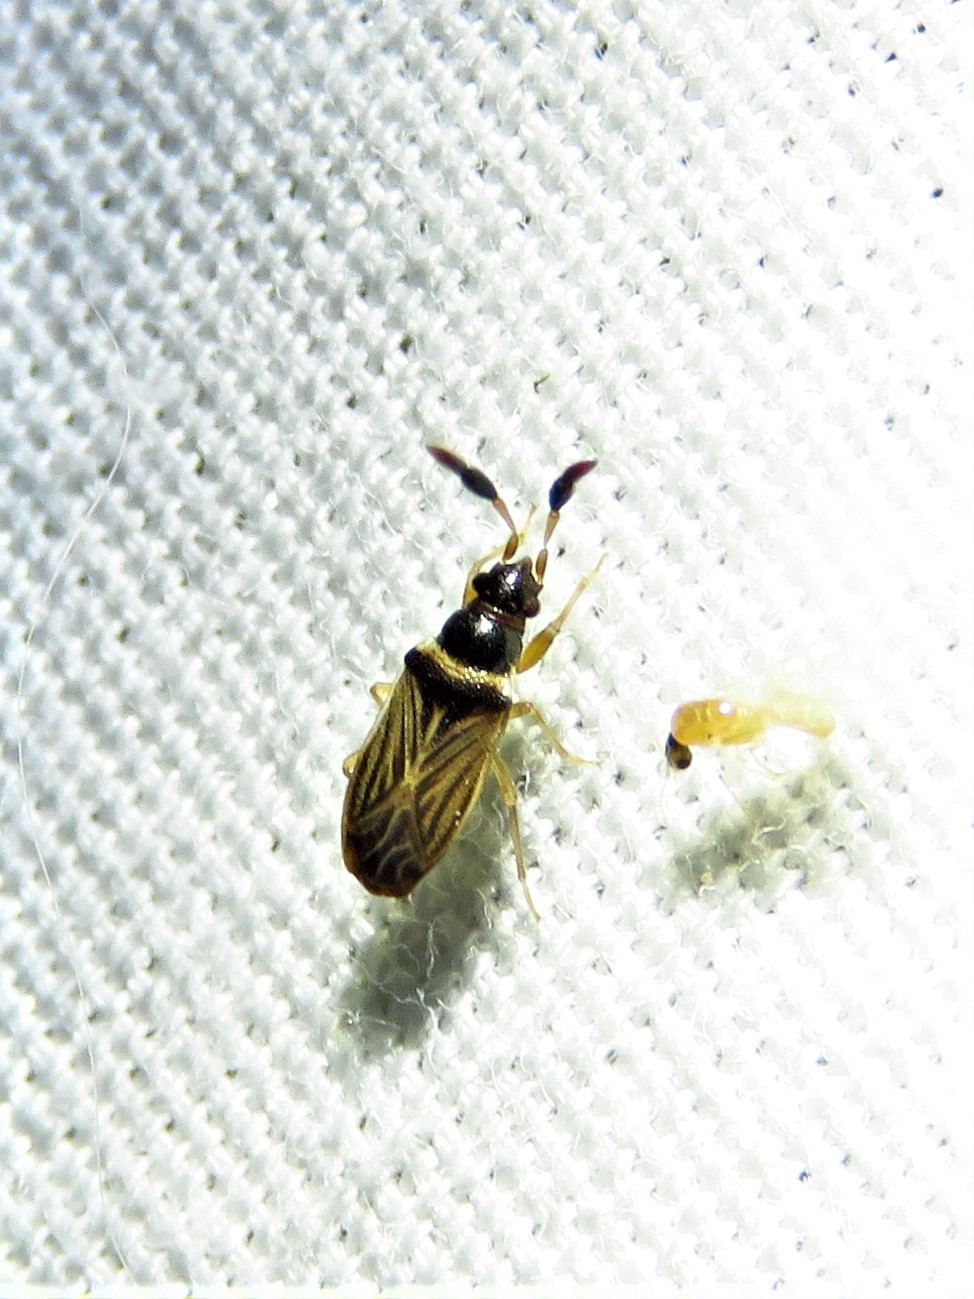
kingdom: Animalia
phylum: Arthropoda
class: Insecta
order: Hemiptera
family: Rhyparochromidae
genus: Ptochiomera
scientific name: Ptochiomera nodosa
